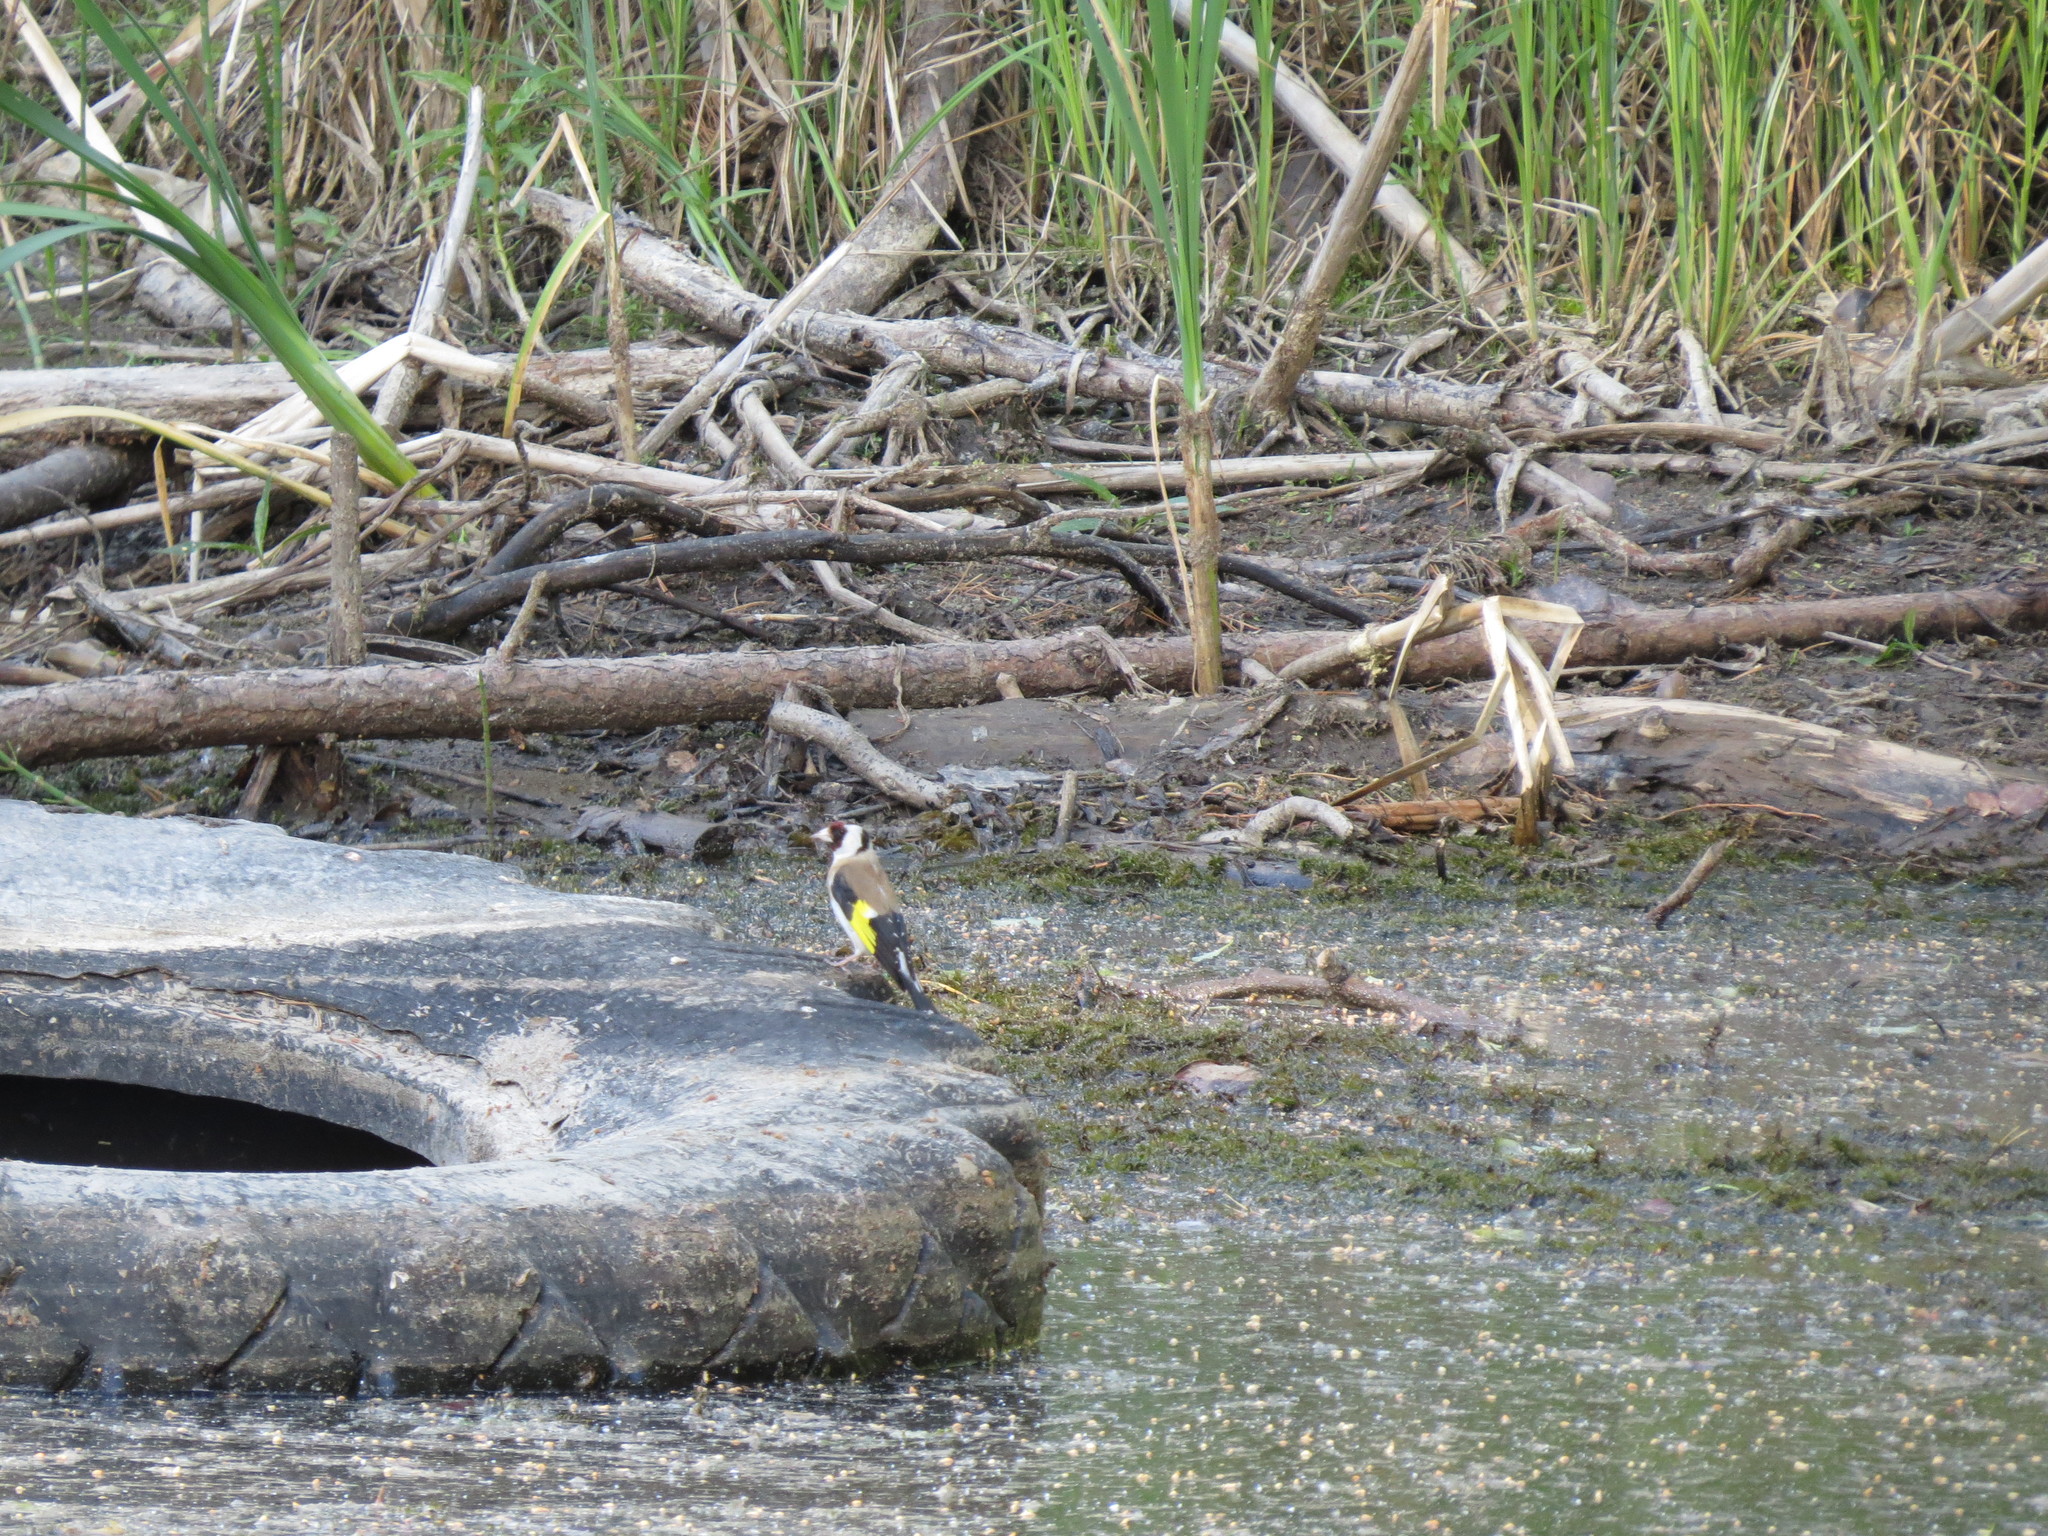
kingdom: Animalia
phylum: Chordata
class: Aves
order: Passeriformes
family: Fringillidae
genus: Carduelis
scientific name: Carduelis carduelis
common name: European goldfinch
